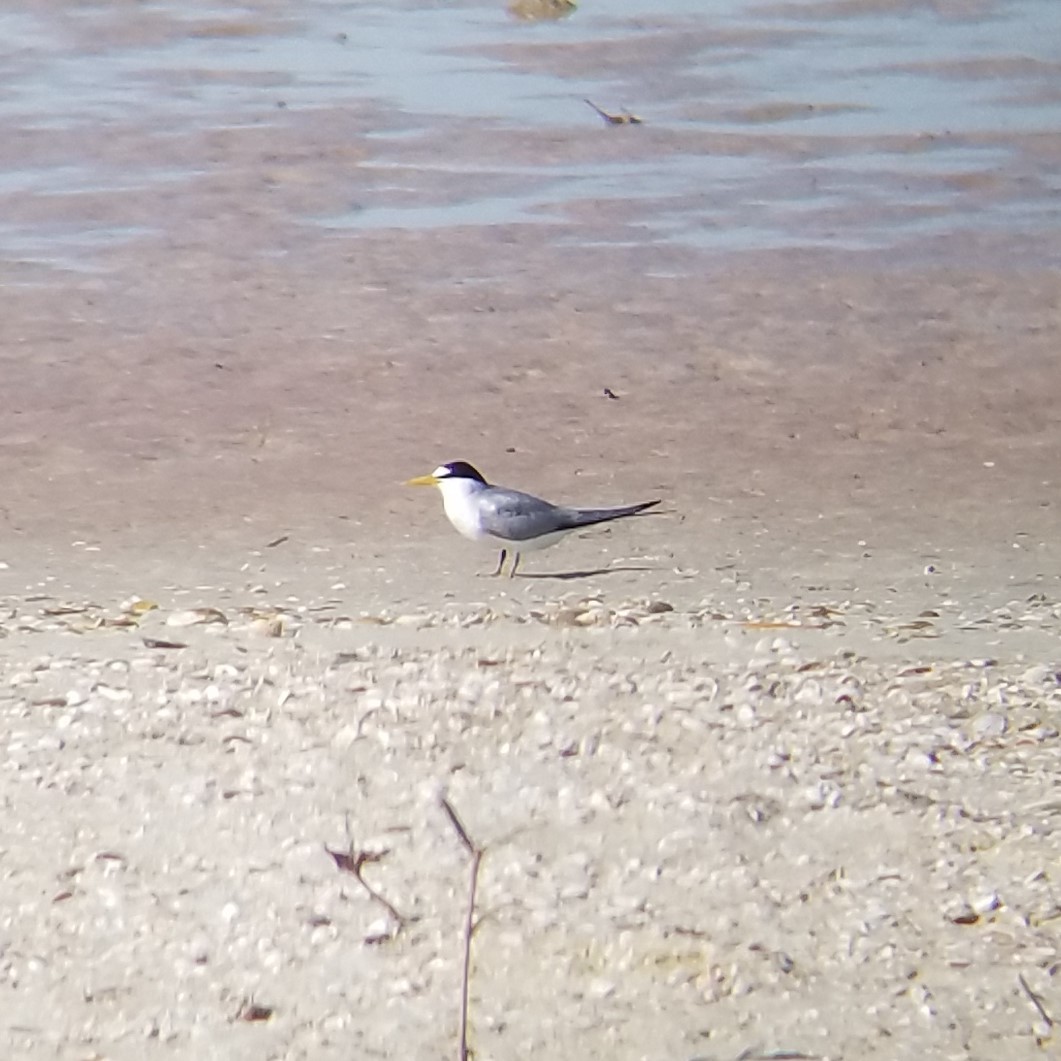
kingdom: Animalia
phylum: Chordata
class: Aves
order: Charadriiformes
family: Laridae
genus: Sternula
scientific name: Sternula antillarum
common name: Least tern
